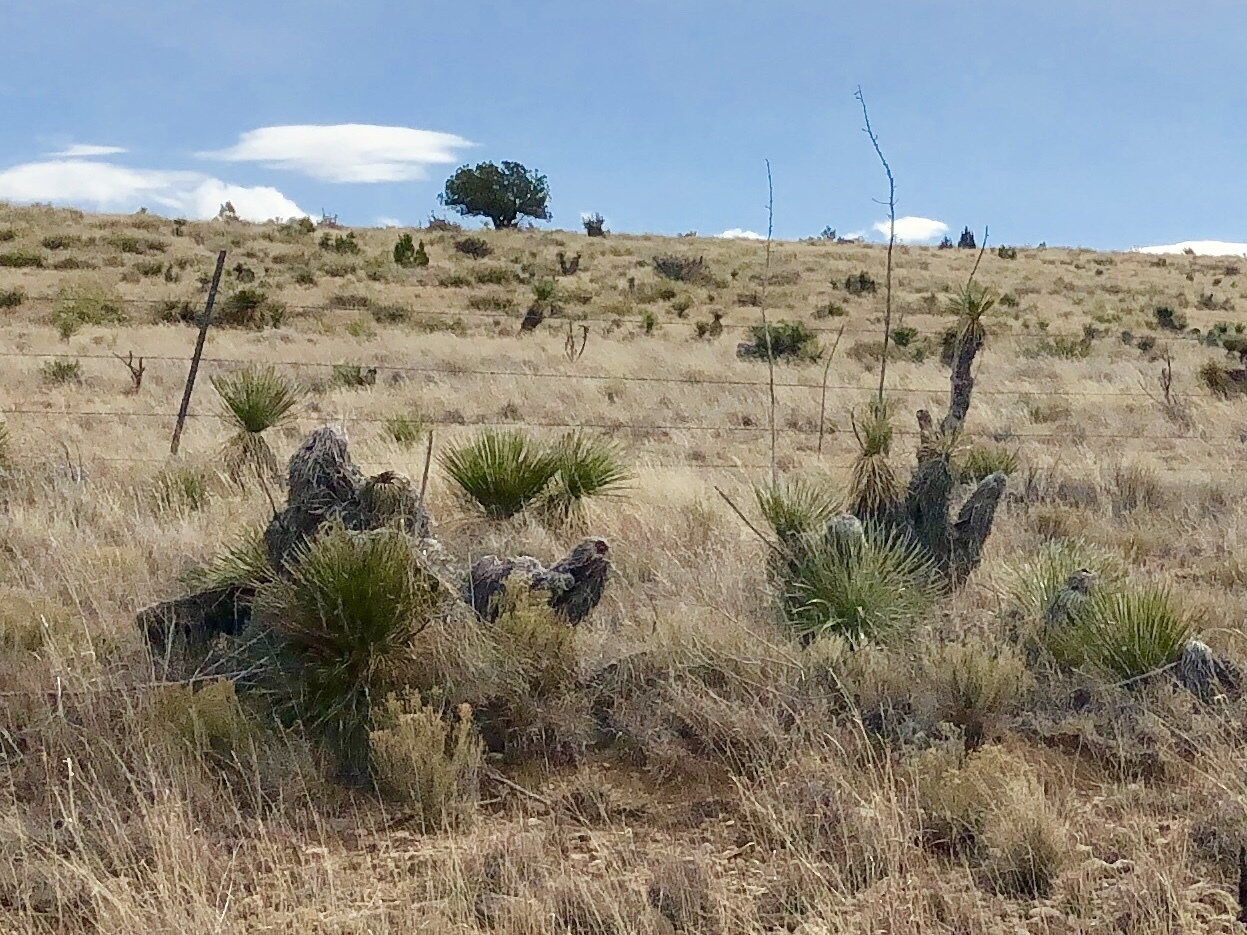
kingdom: Plantae
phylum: Tracheophyta
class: Liliopsida
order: Asparagales
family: Asparagaceae
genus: Yucca
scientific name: Yucca elata
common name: Palmella
